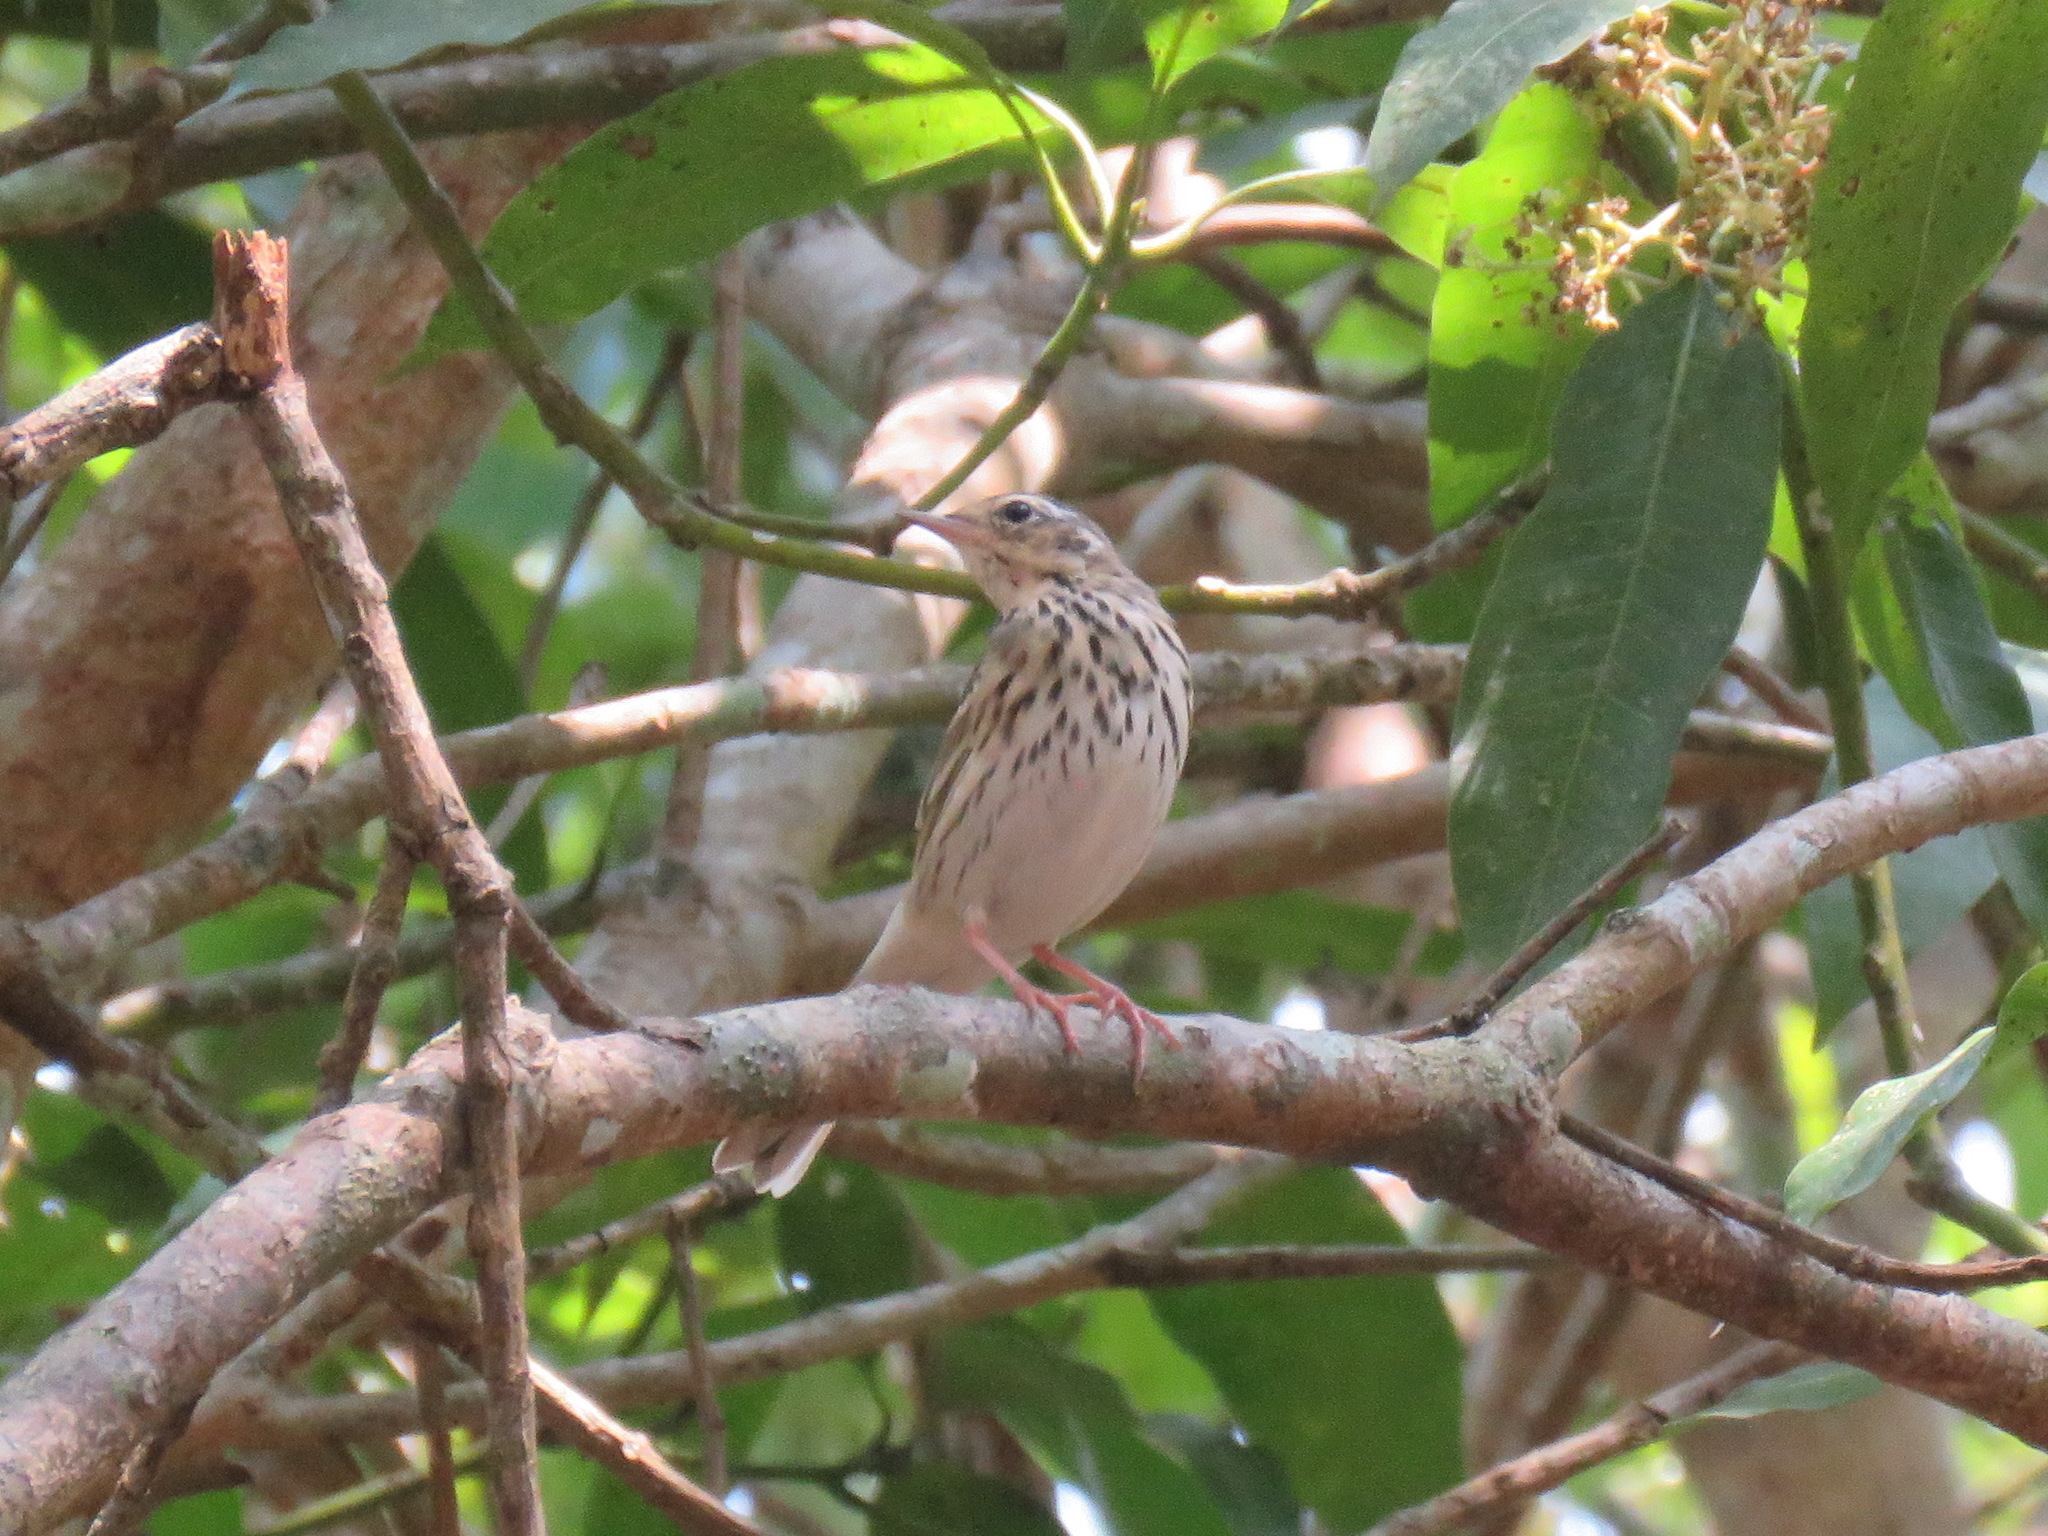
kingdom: Animalia
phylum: Chordata
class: Aves
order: Passeriformes
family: Motacillidae
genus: Anthus
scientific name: Anthus hodgsoni
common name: Olive-backed pipit
